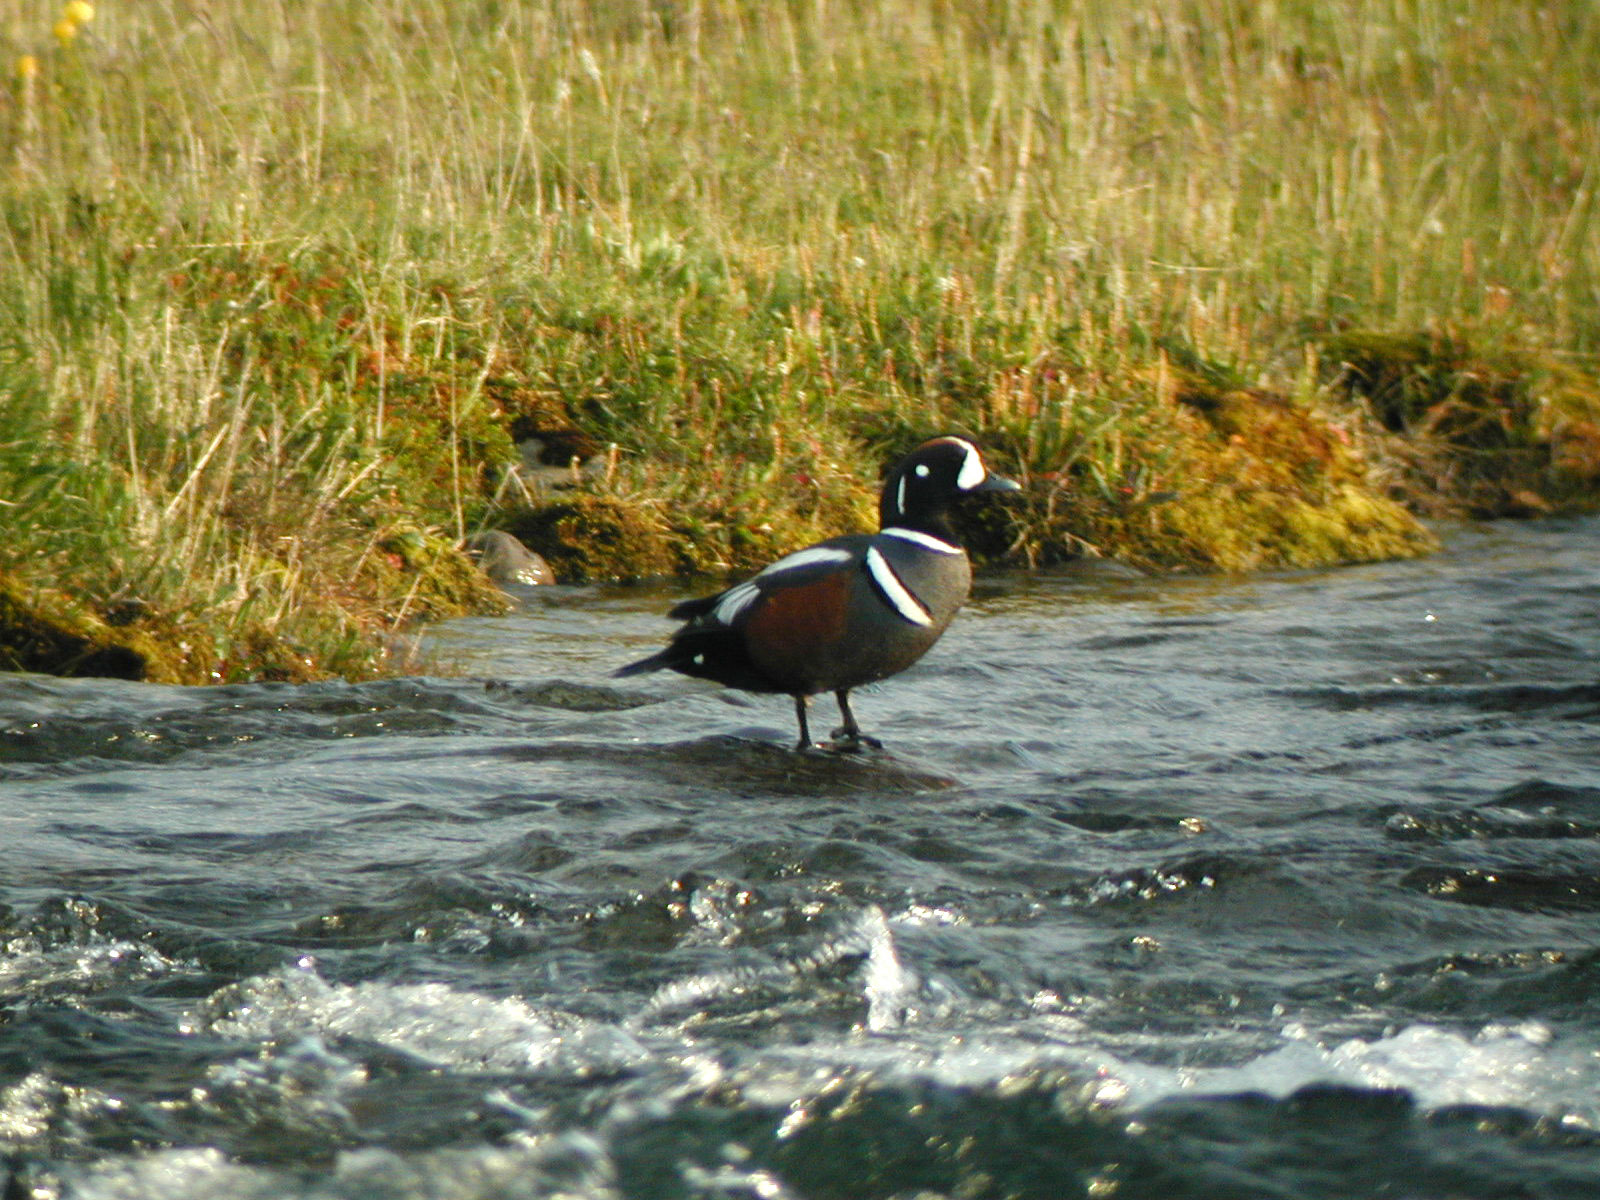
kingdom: Animalia
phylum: Chordata
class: Aves
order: Anseriformes
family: Anatidae
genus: Histrionicus
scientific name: Histrionicus histrionicus
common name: Harlequin duck
